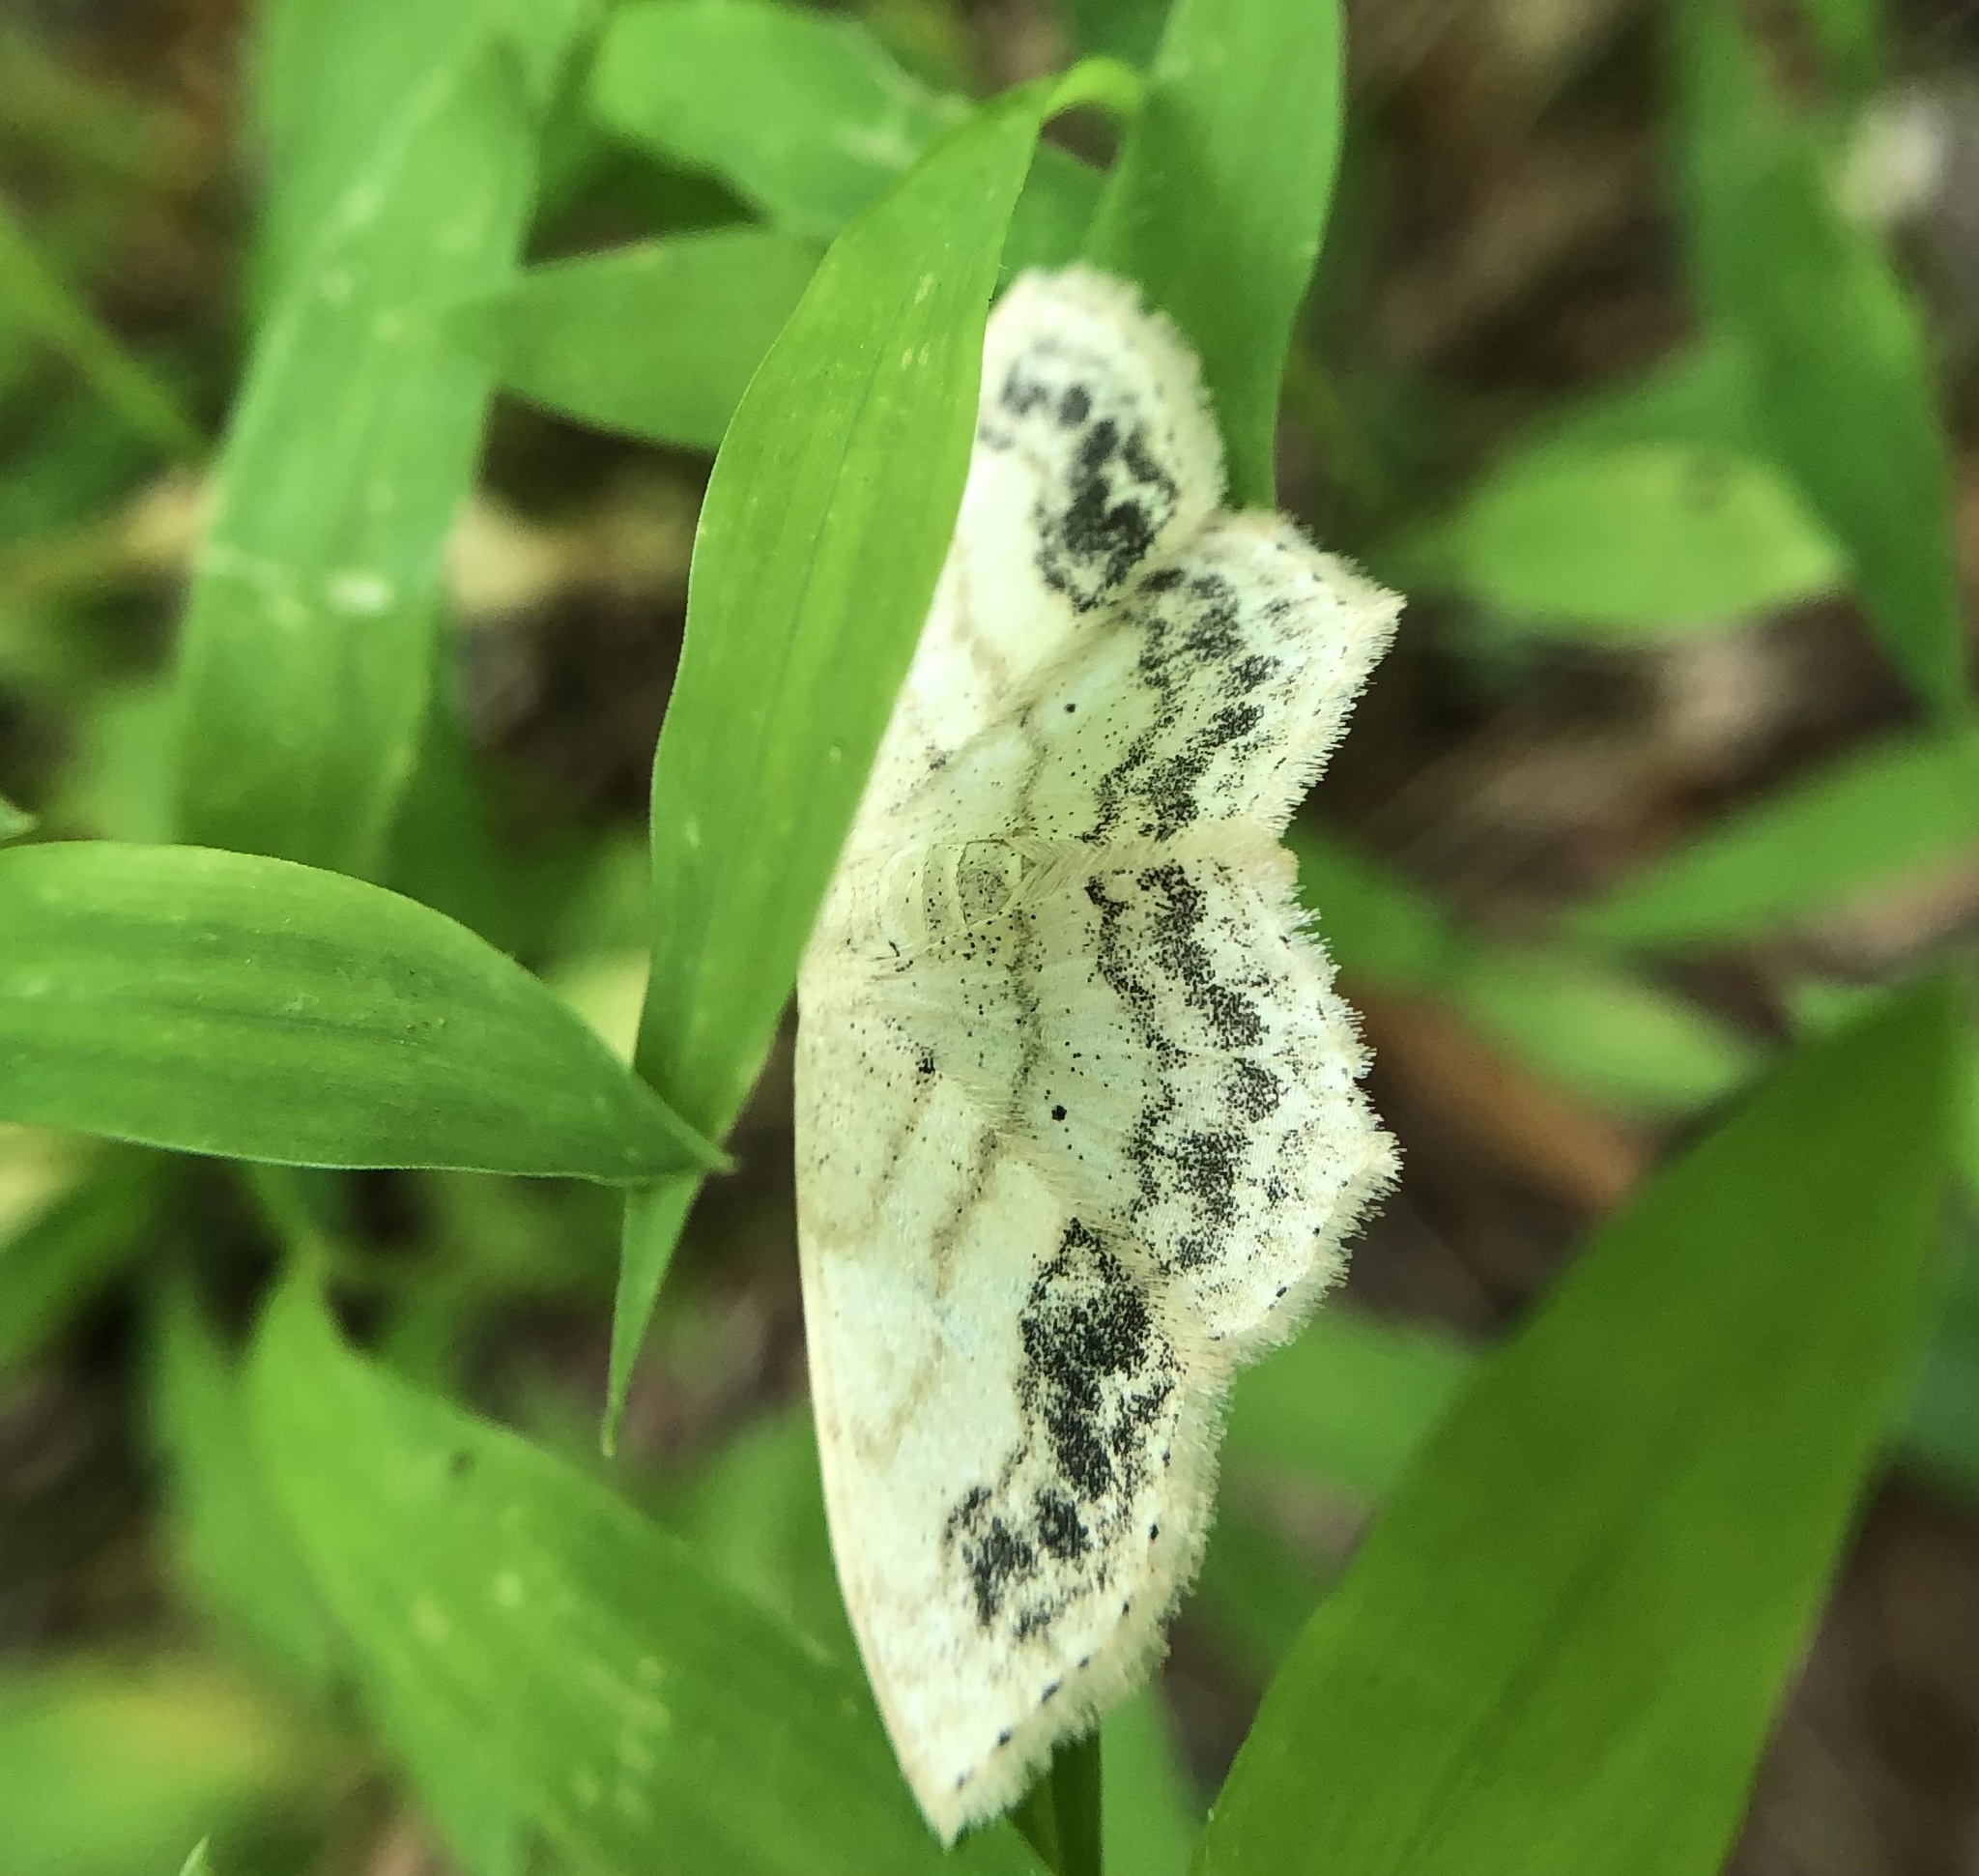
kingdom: Animalia
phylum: Arthropoda
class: Insecta
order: Lepidoptera
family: Geometridae
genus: Scopula
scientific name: Scopula limboundata
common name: Large lace border
